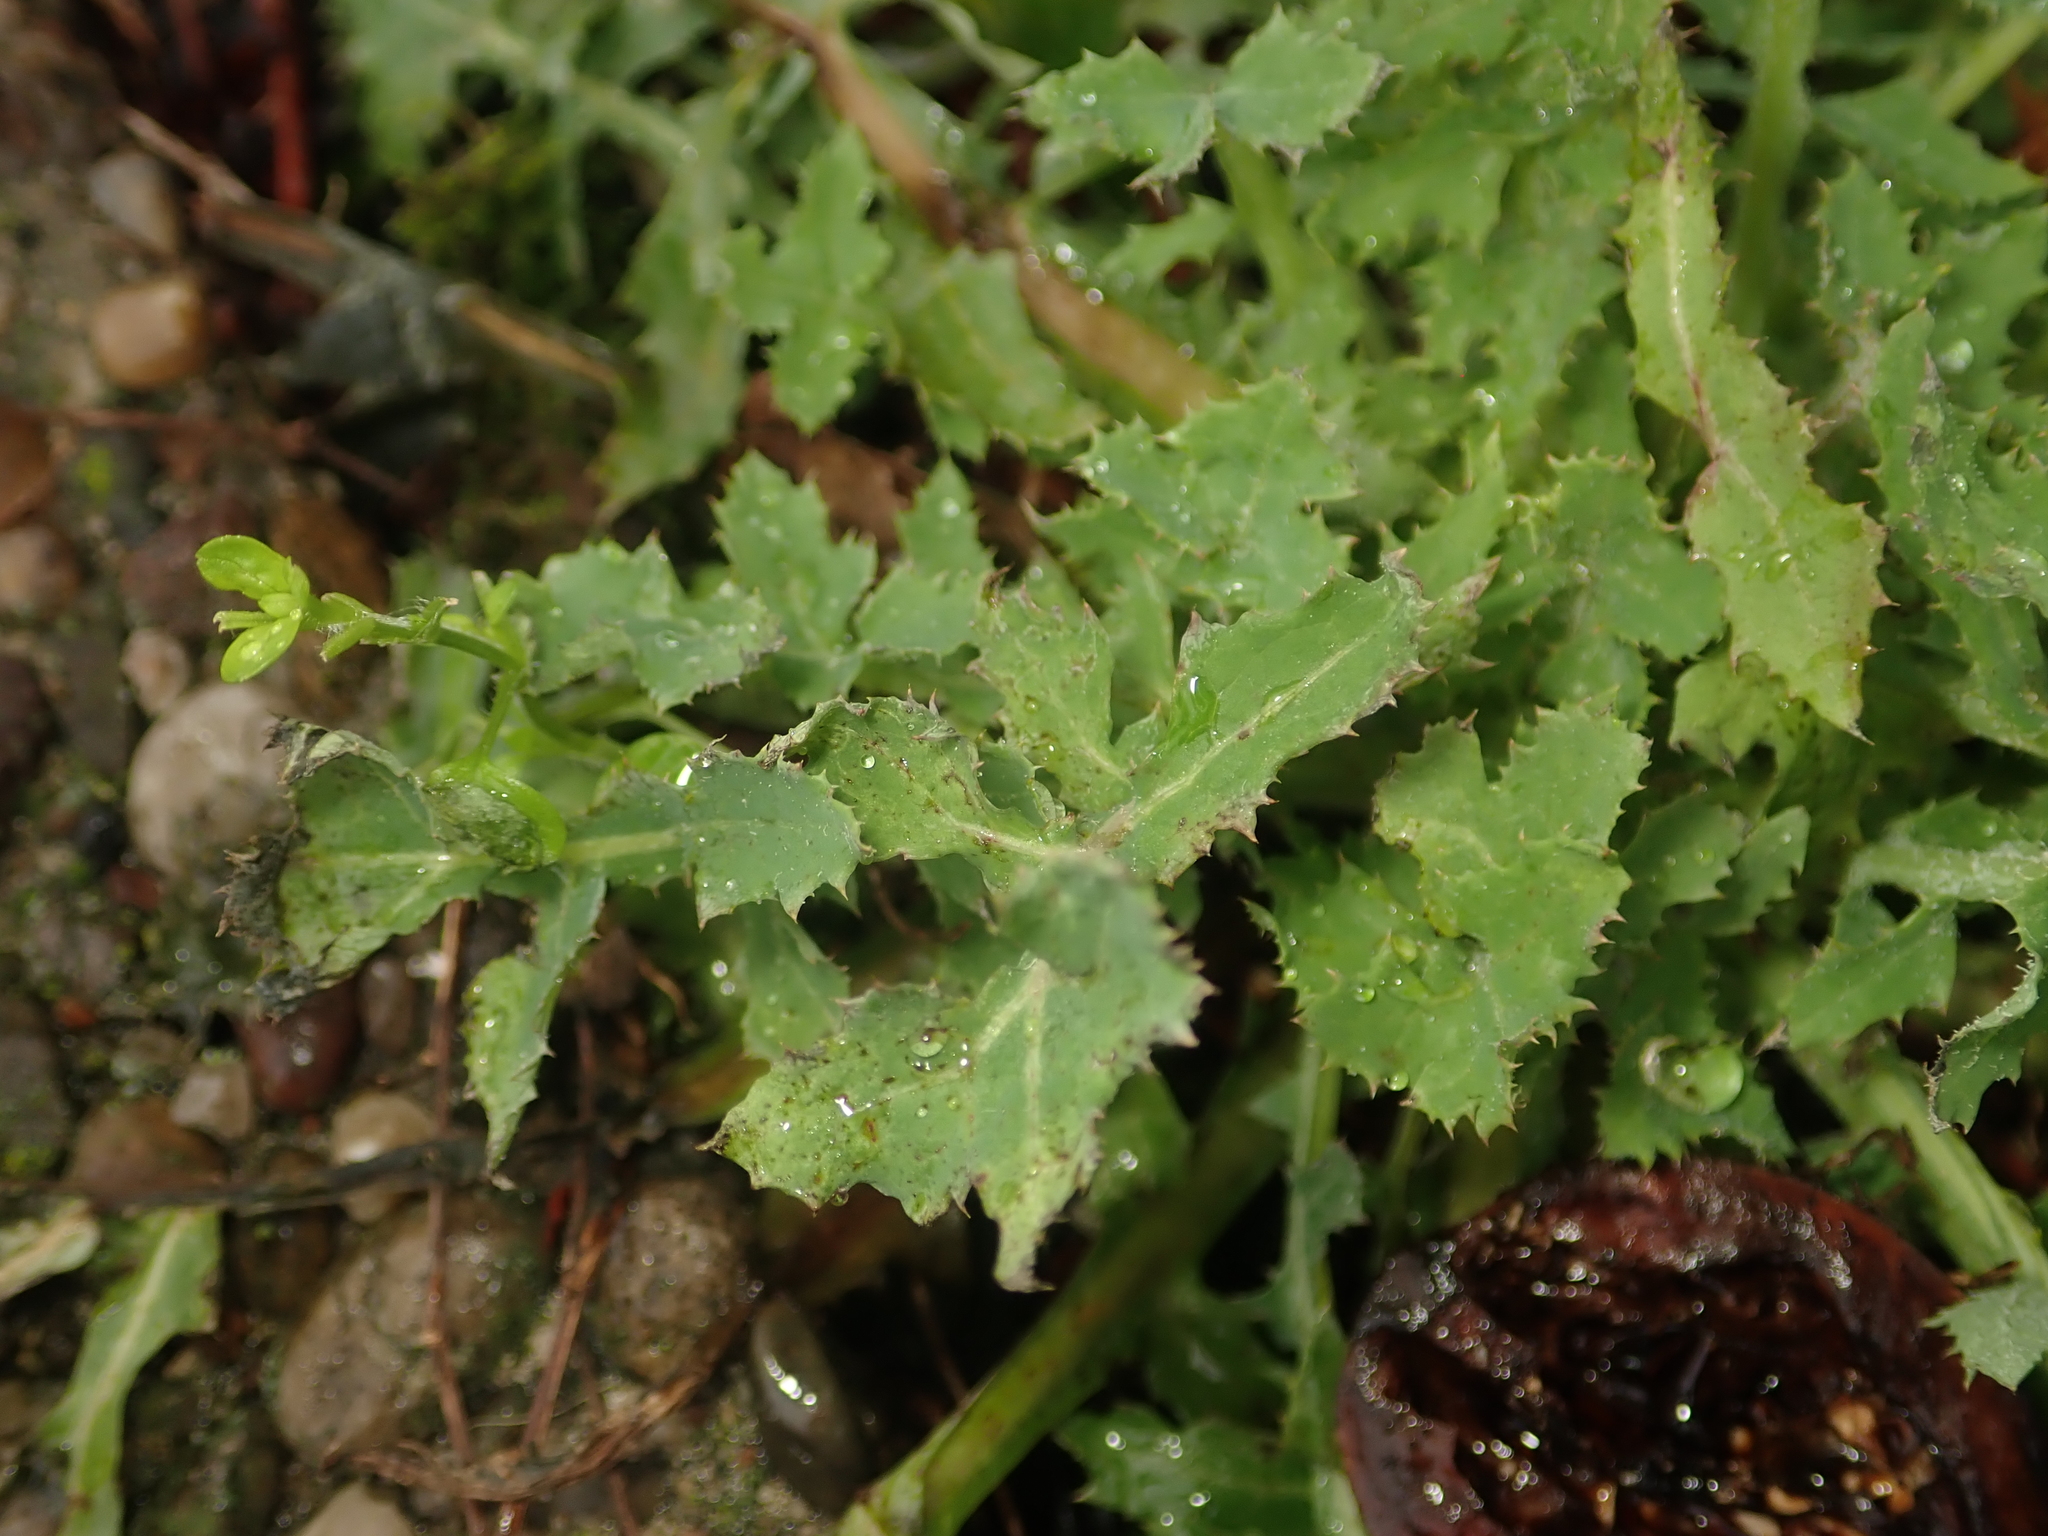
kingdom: Plantae
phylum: Tracheophyta
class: Magnoliopsida
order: Asterales
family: Asteraceae
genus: Sonchus
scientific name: Sonchus oleraceus
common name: Common sowthistle
